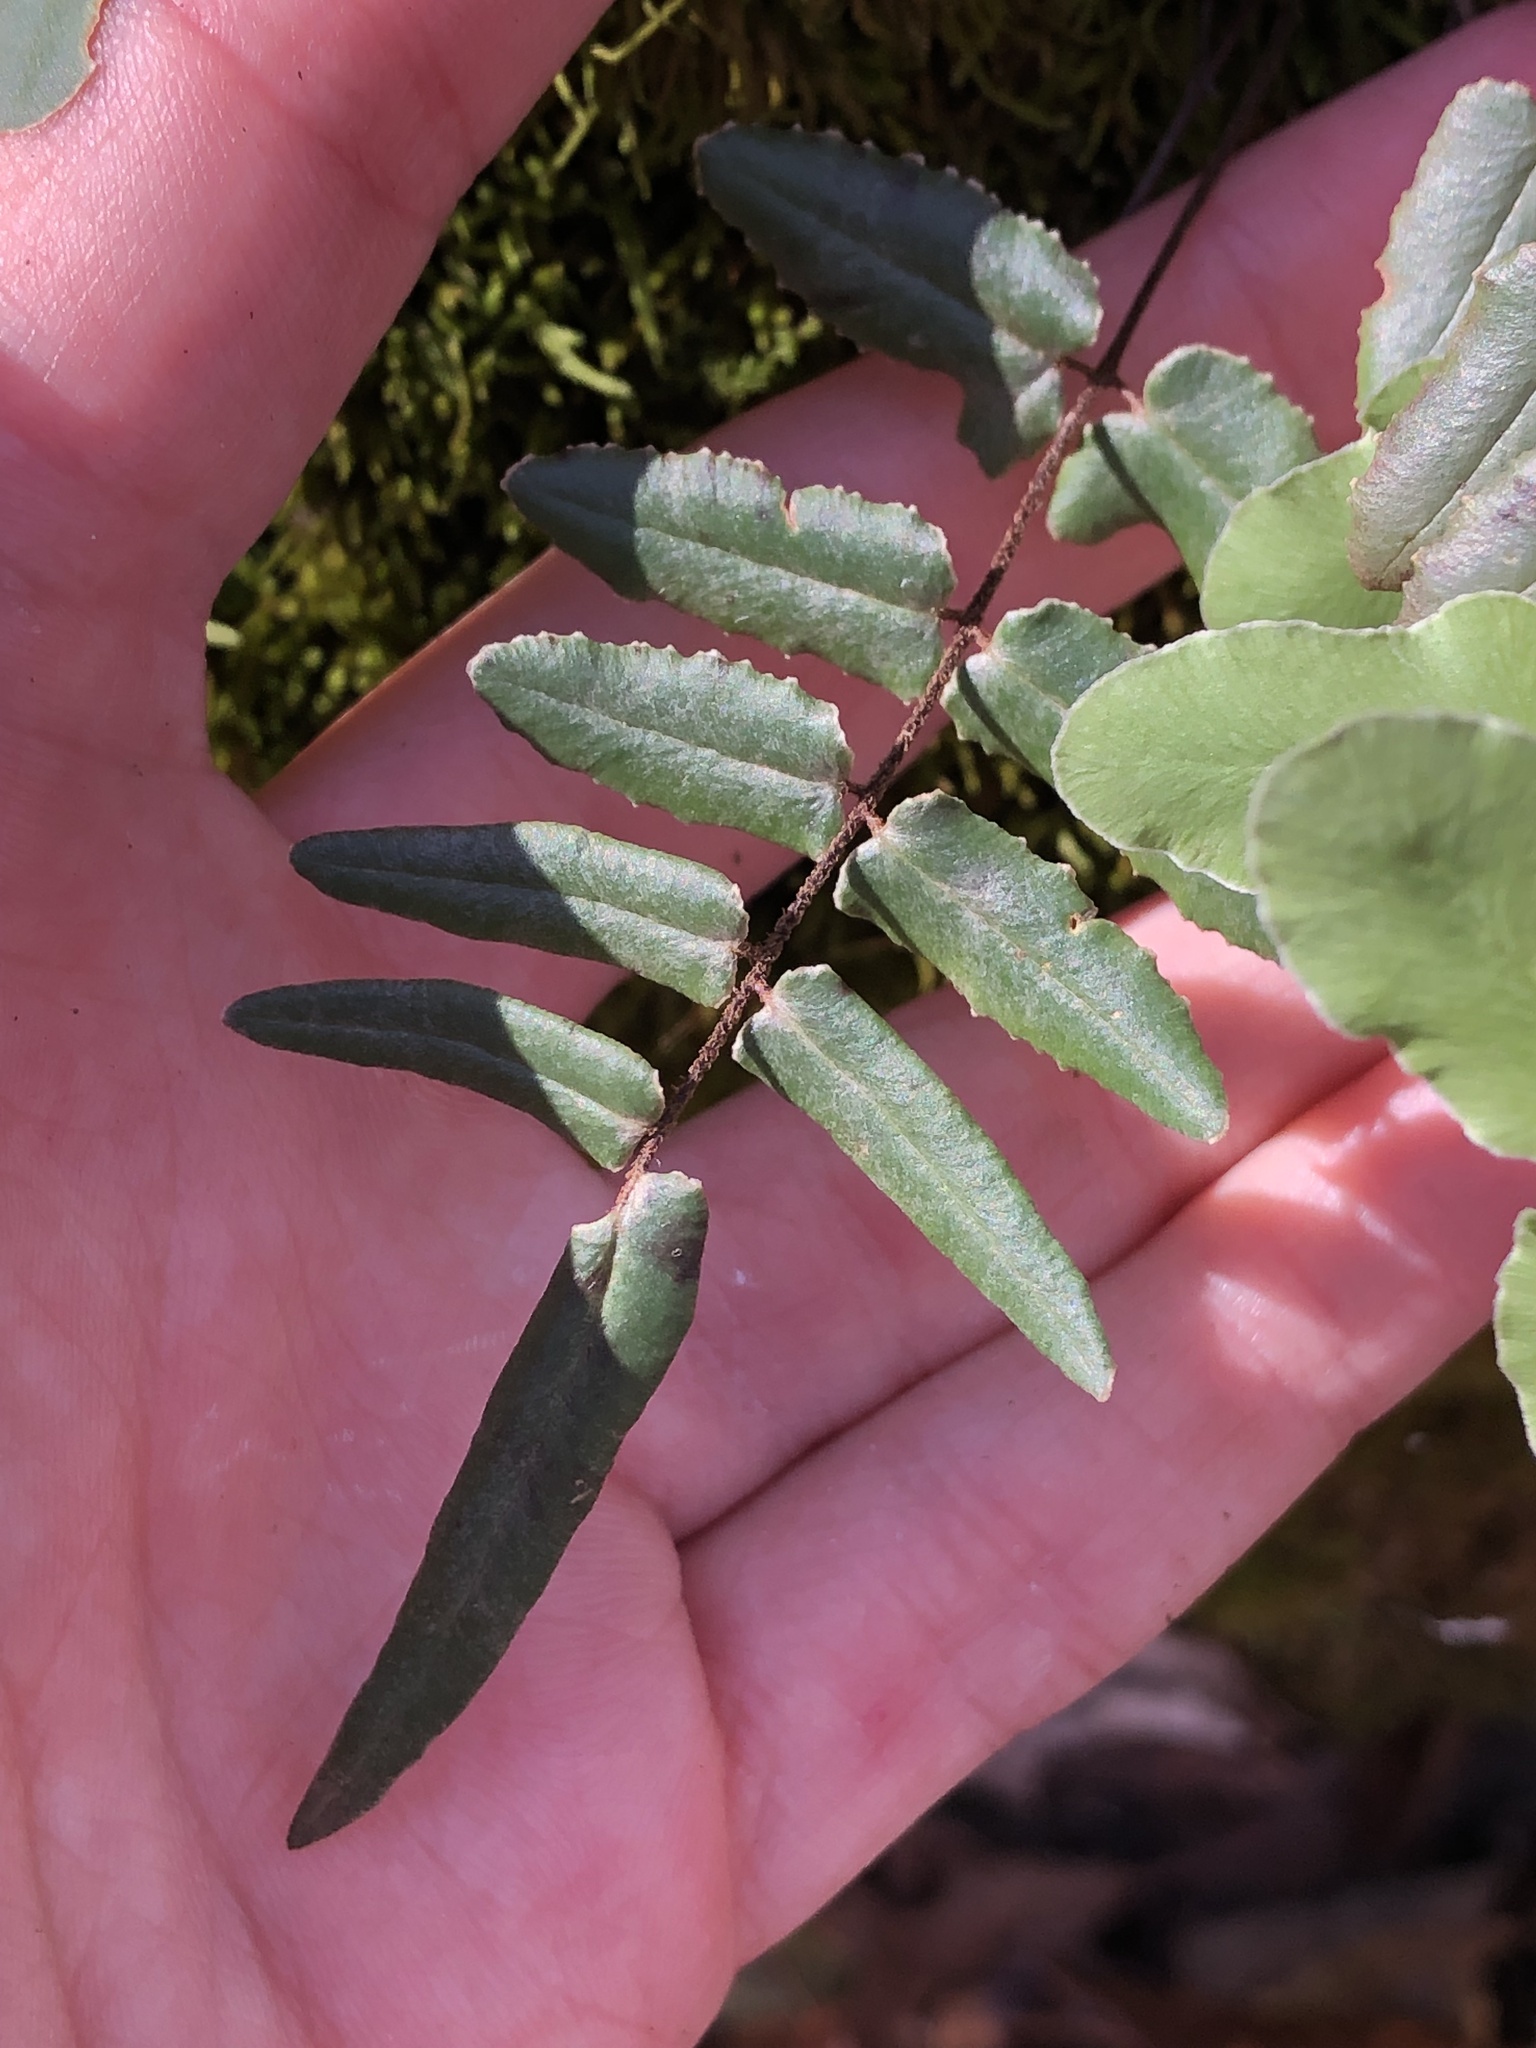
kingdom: Plantae
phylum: Tracheophyta
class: Polypodiopsida
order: Polypodiales
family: Pteridaceae
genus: Pellaea
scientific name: Pellaea atropurpurea
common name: Hairy cliffbrake
